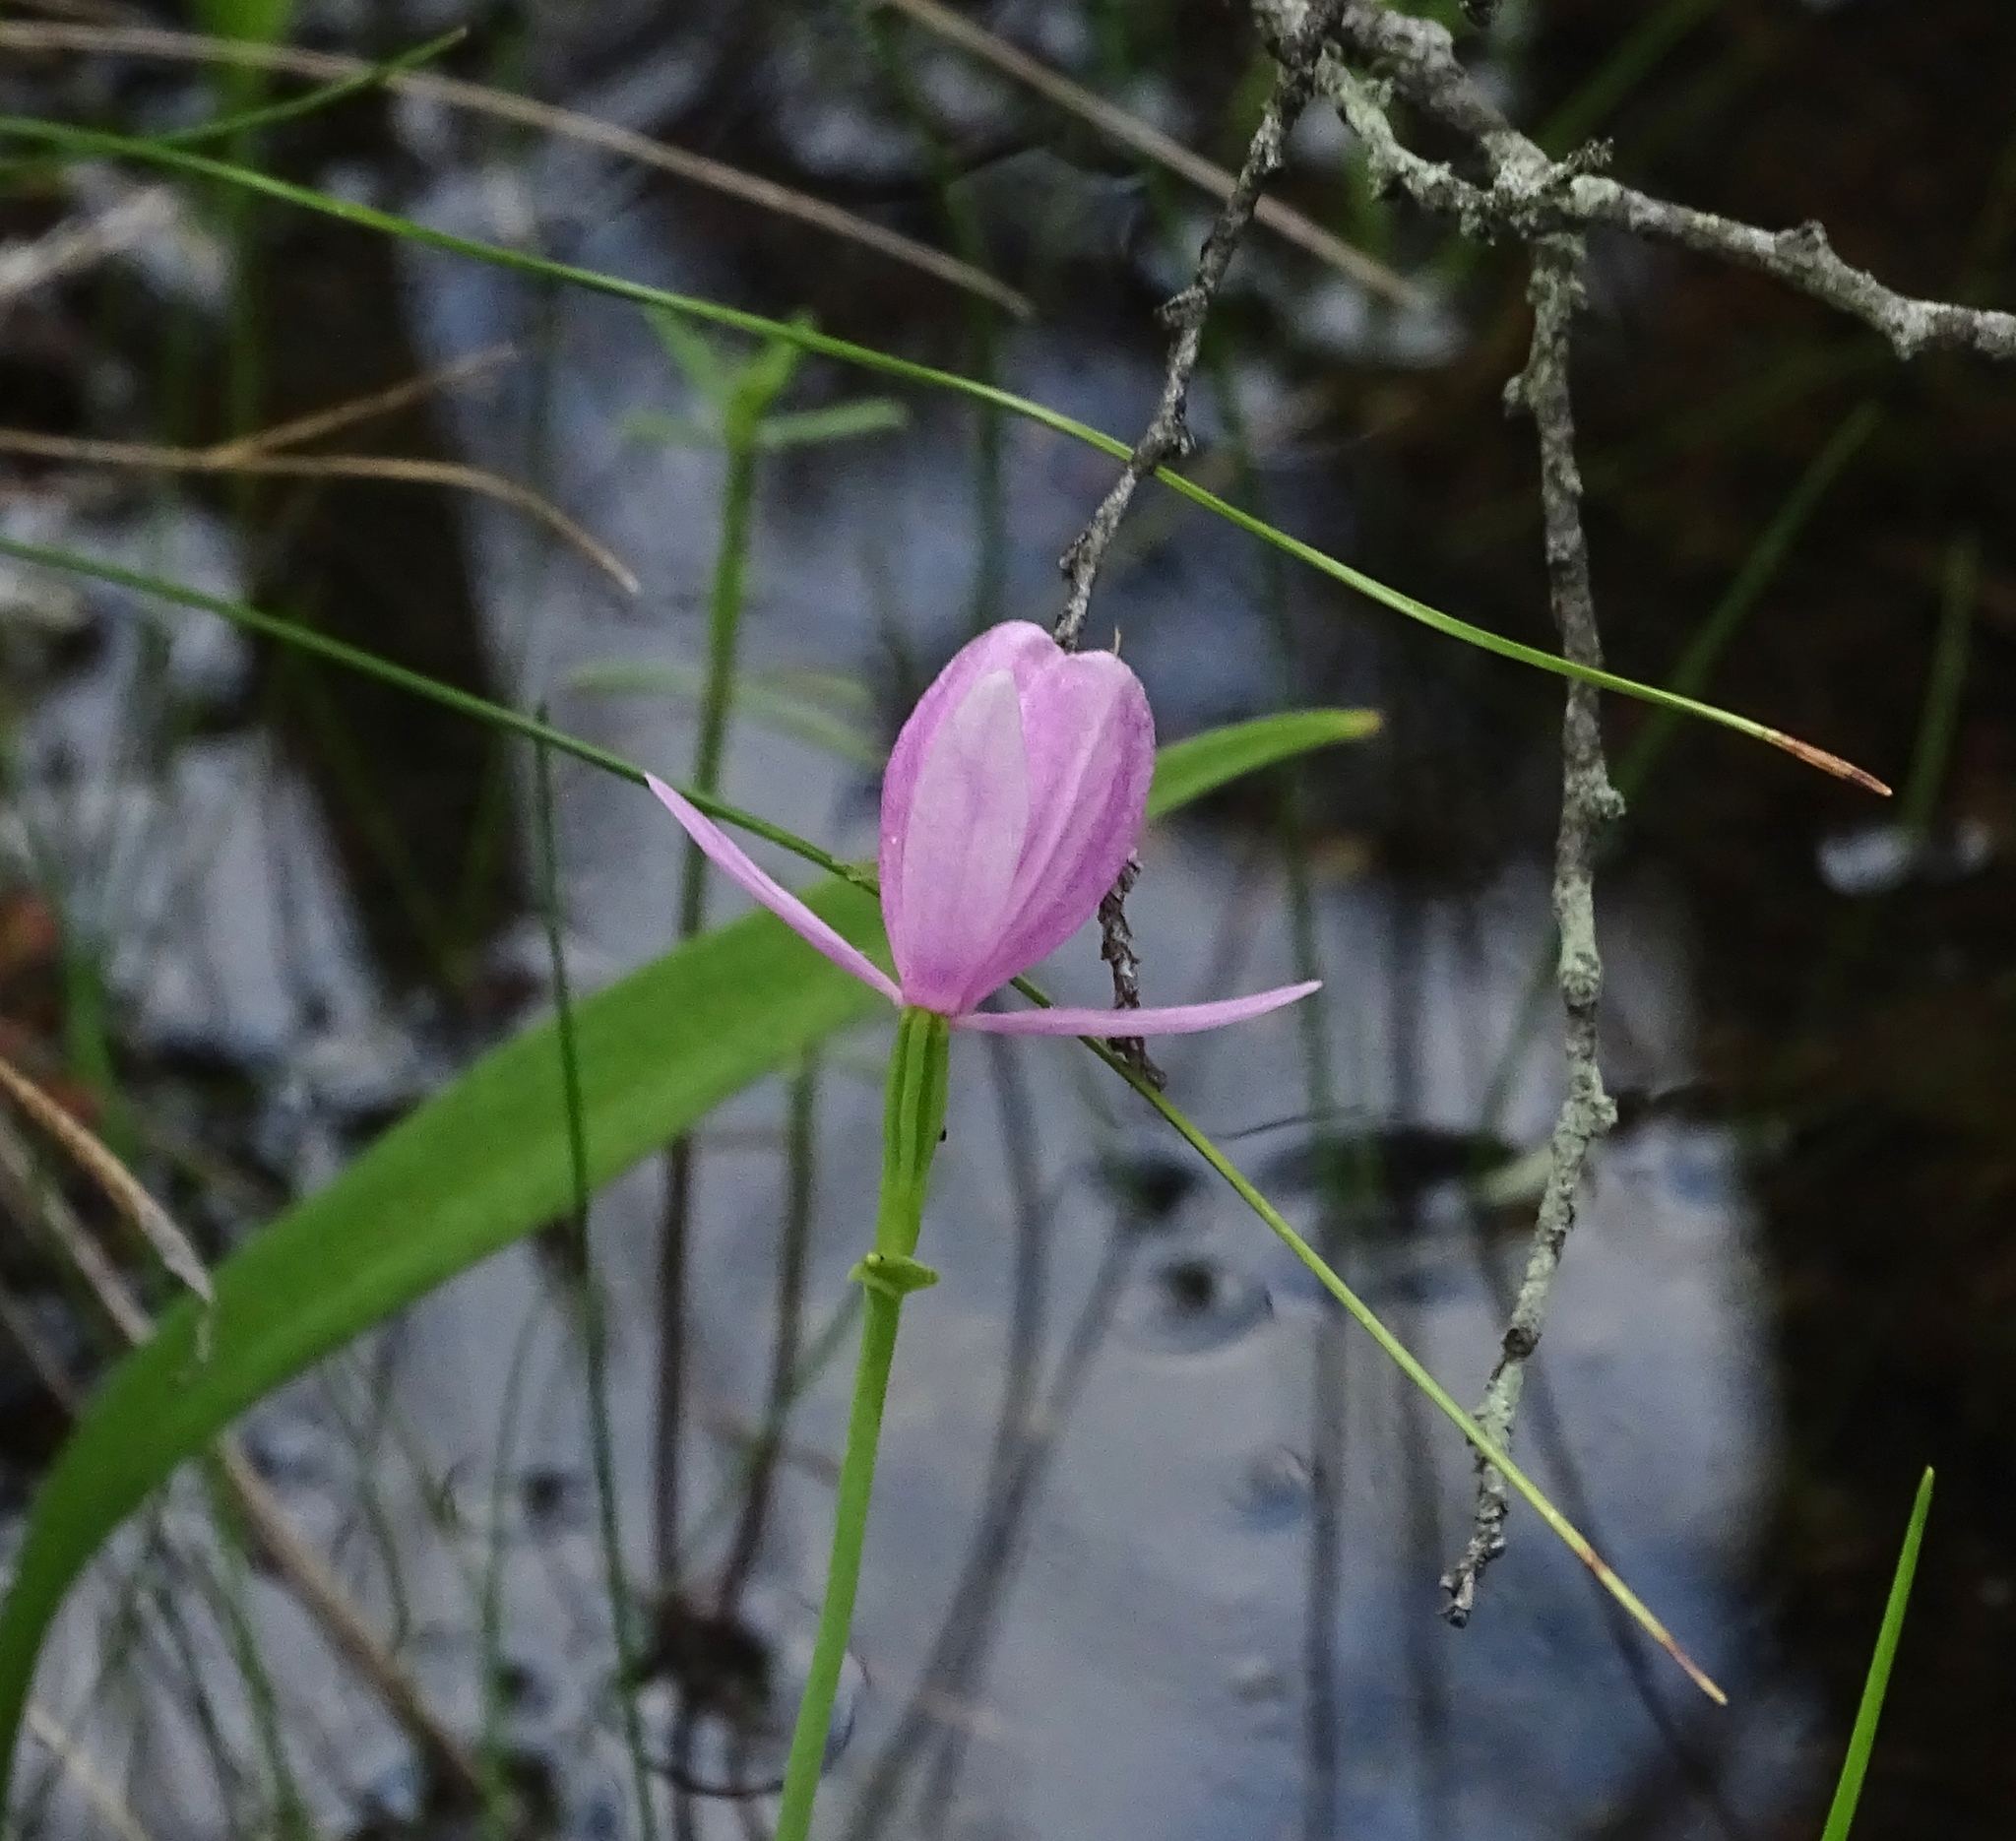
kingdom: Plantae
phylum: Tracheophyta
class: Liliopsida
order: Asparagales
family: Orchidaceae
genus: Pogonia
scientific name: Pogonia ophioglossoides
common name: Rose pogonia
